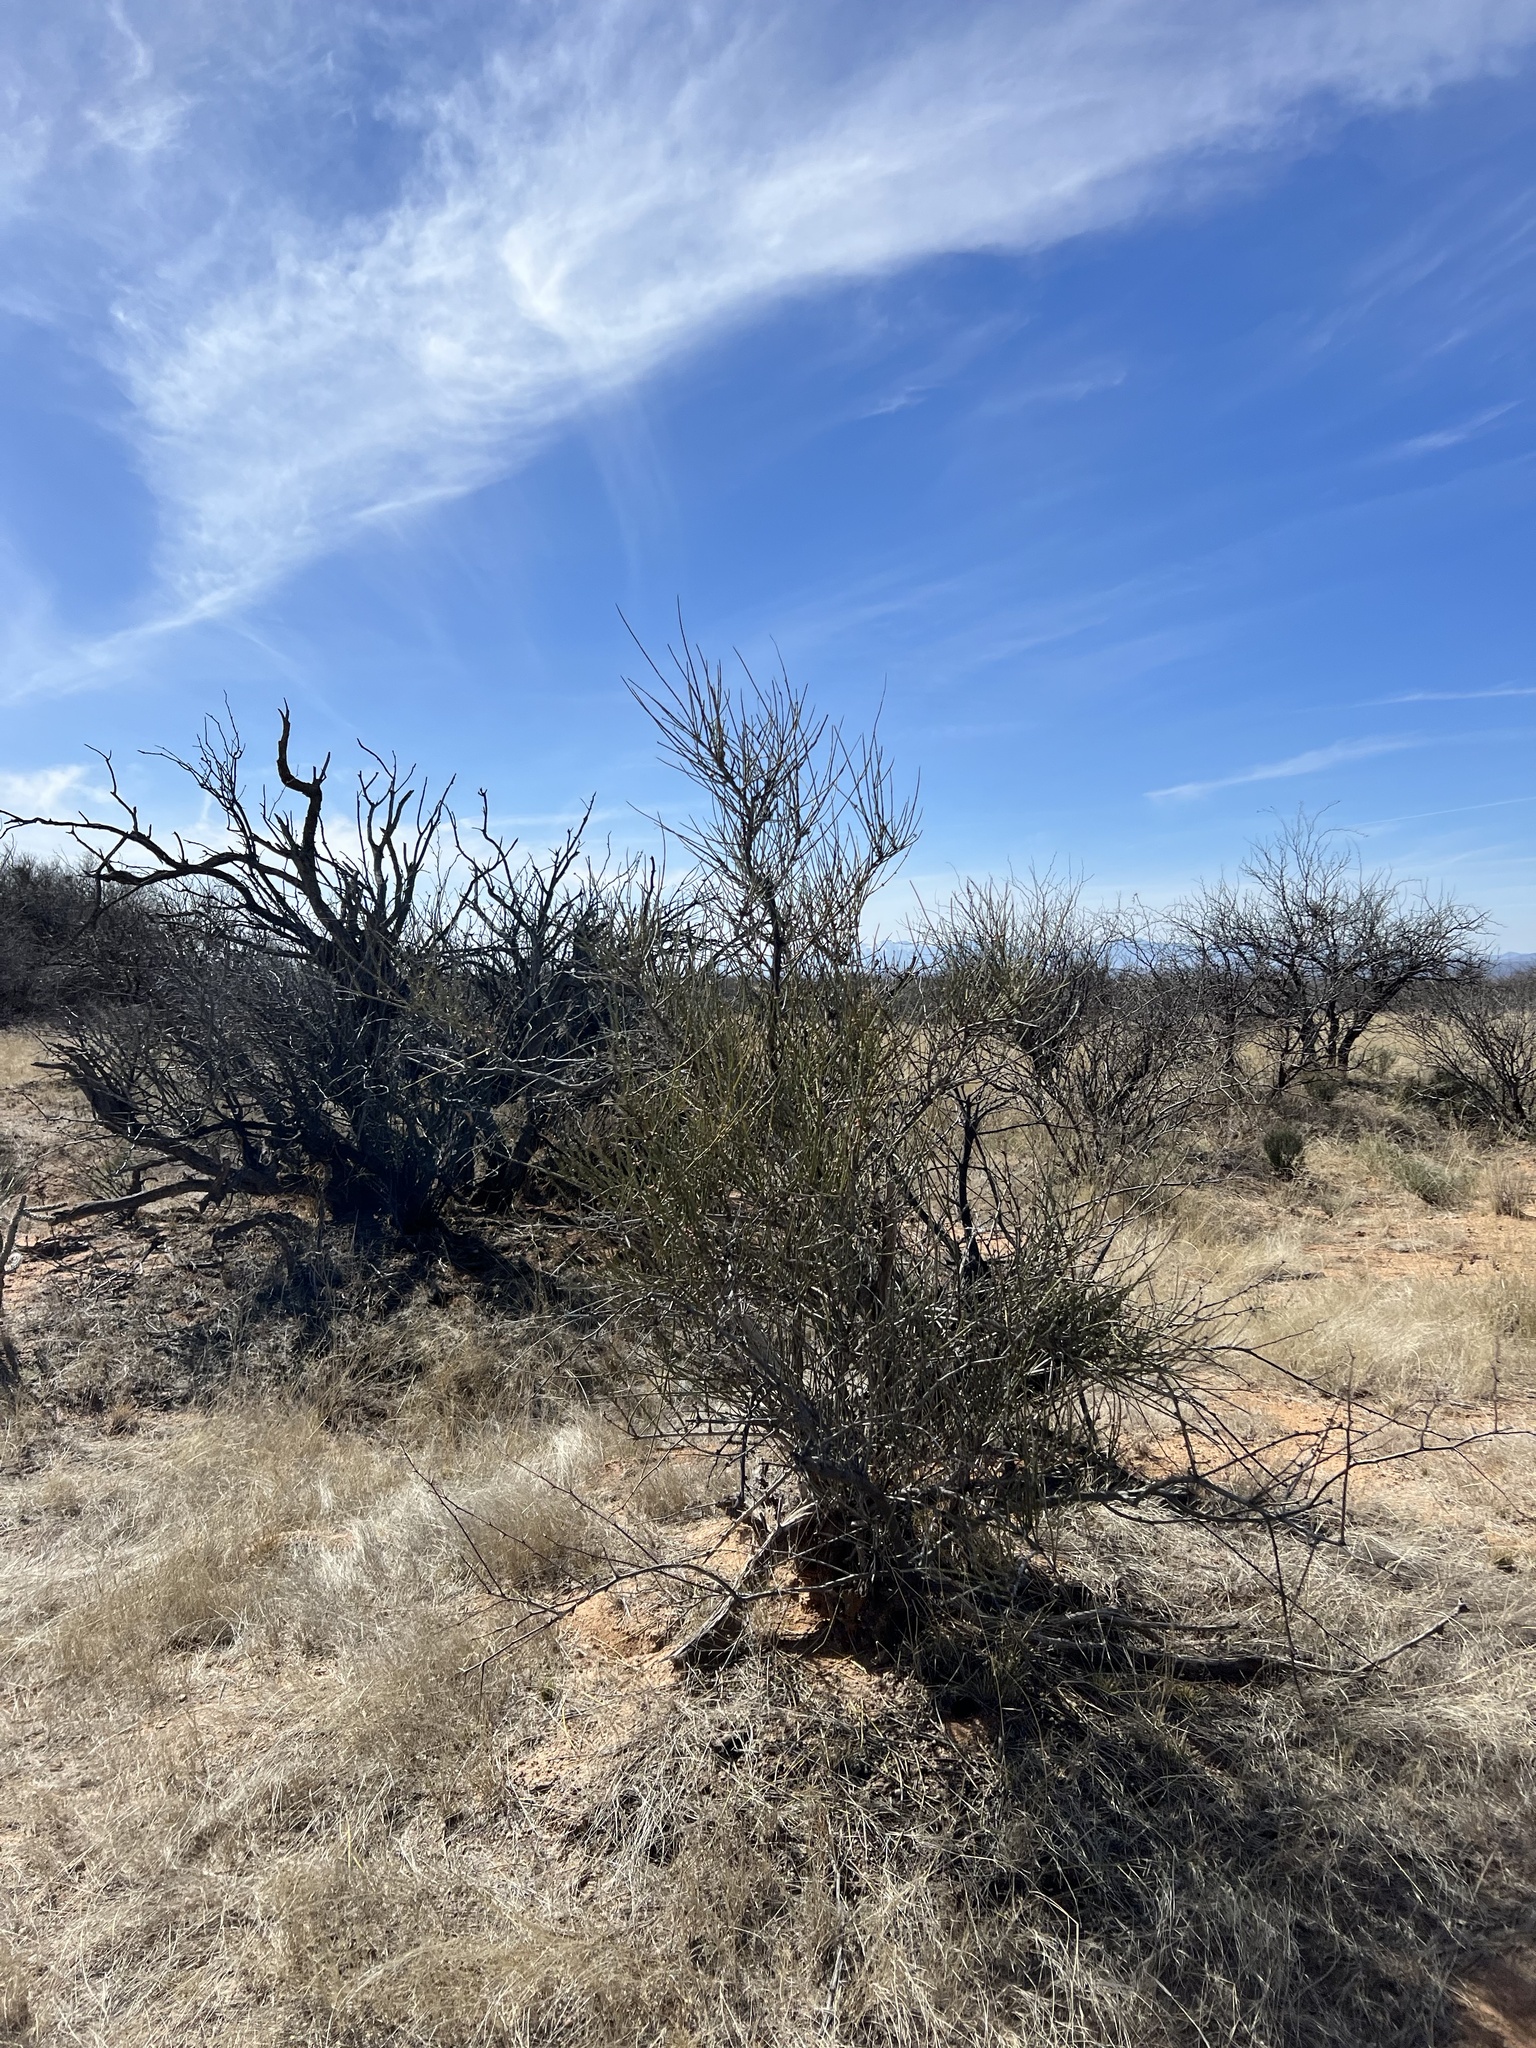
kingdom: Plantae
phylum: Tracheophyta
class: Gnetopsida
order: Ephedrales
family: Ephedraceae
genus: Ephedra
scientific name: Ephedra trifurca
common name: Mexican-tea
